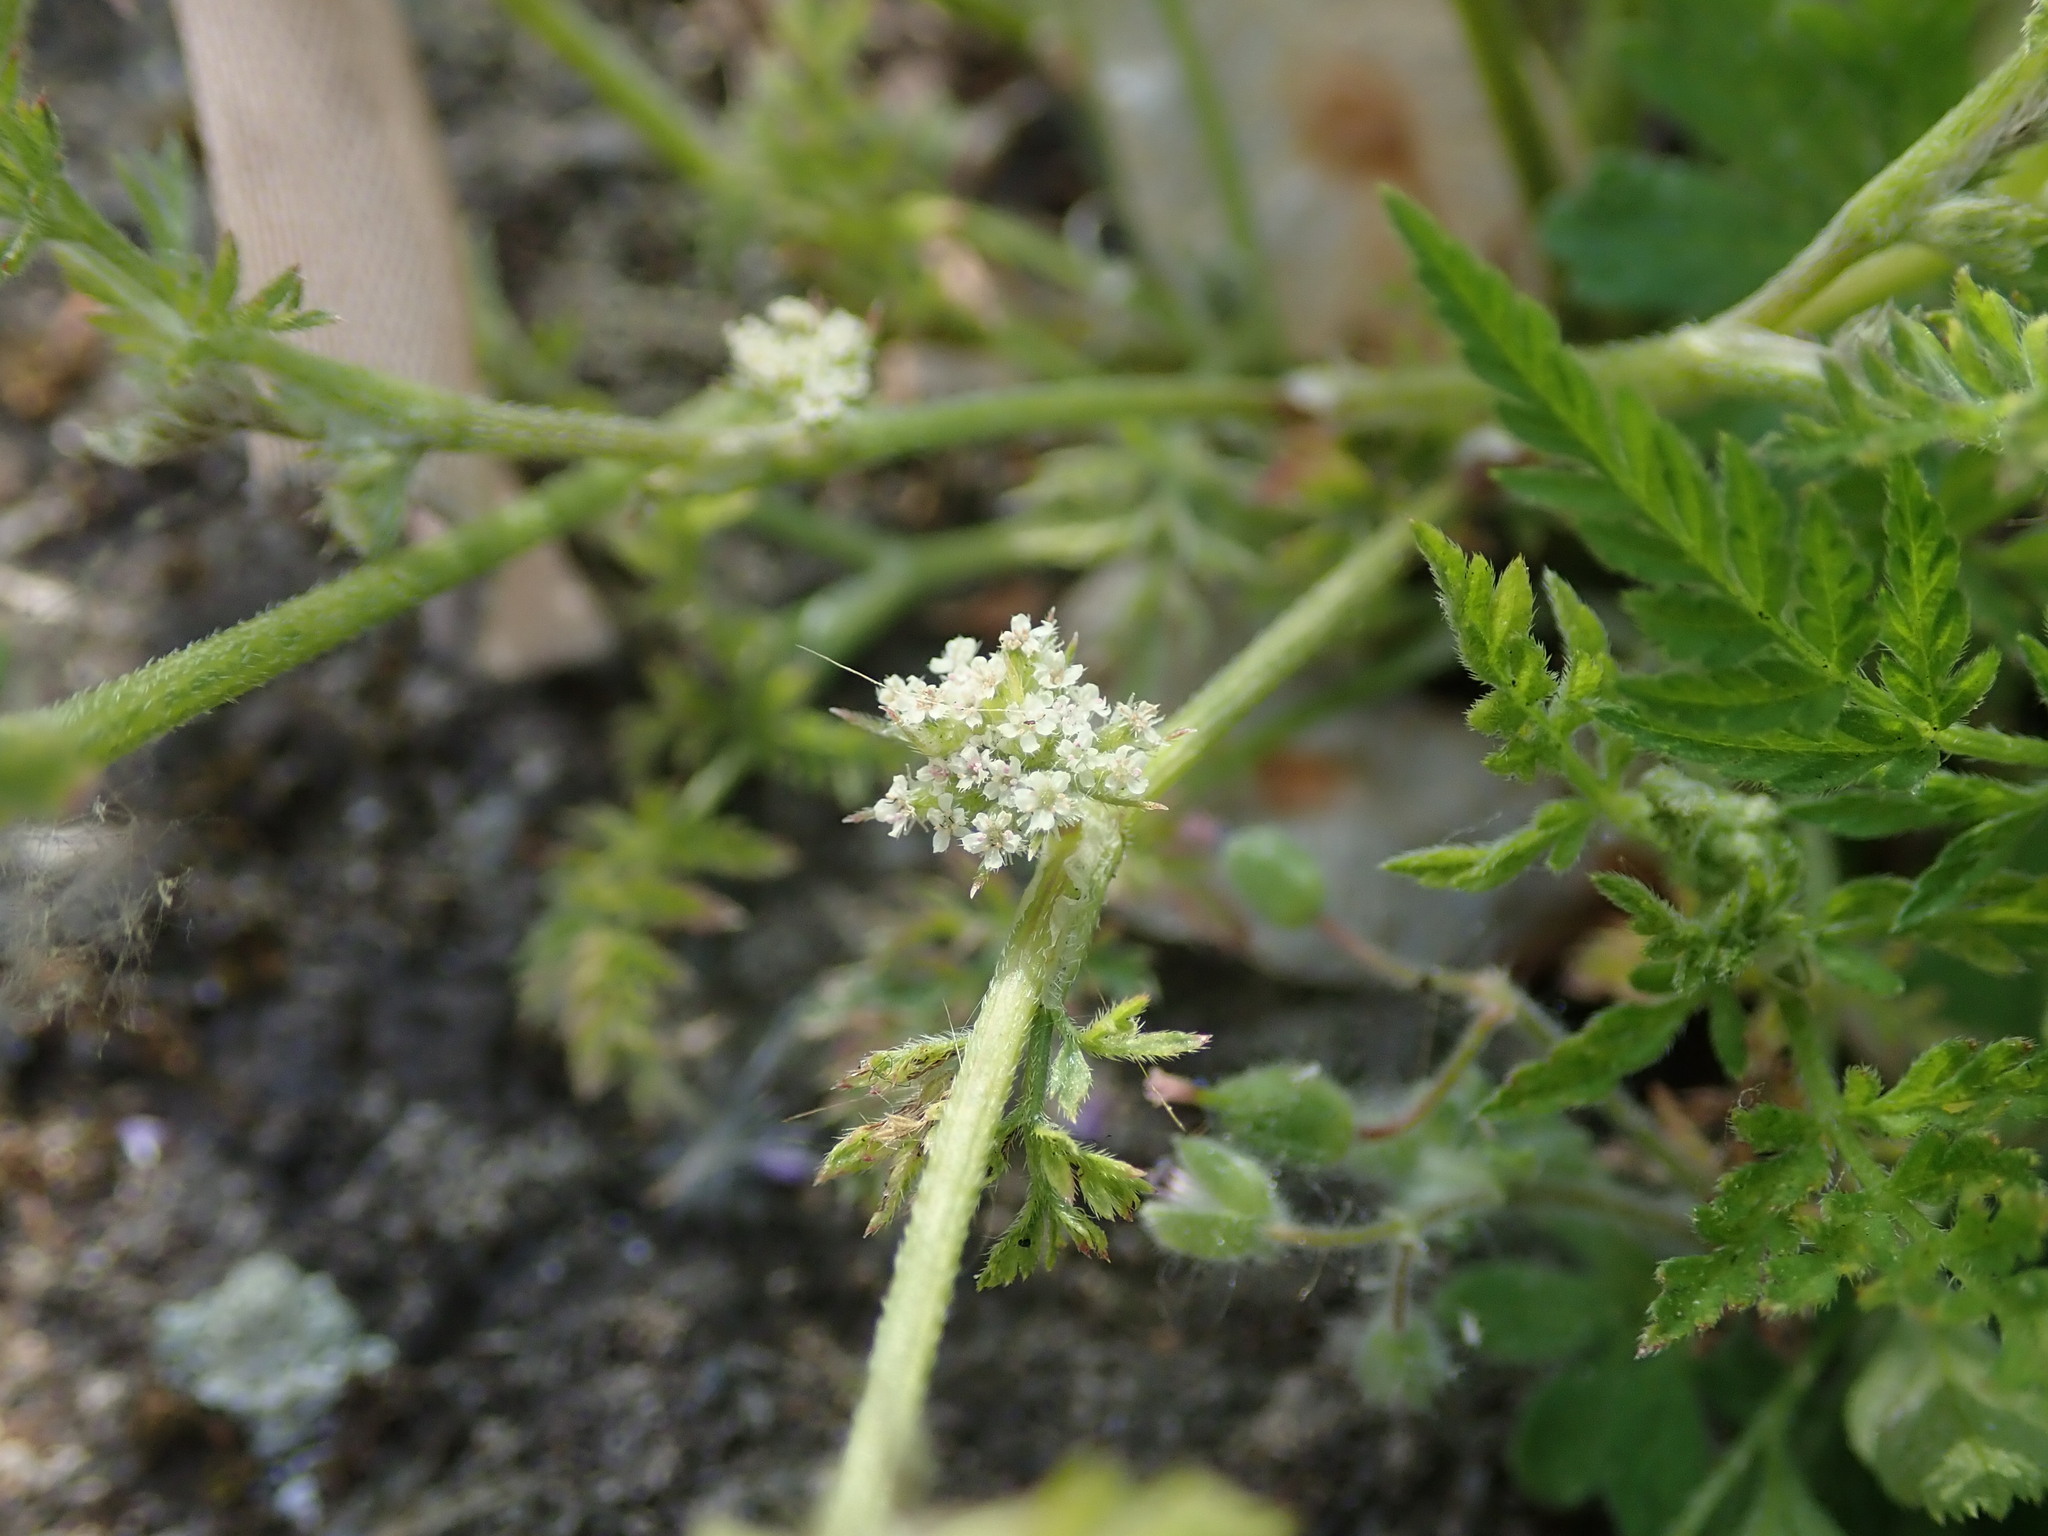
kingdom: Plantae
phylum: Tracheophyta
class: Magnoliopsida
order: Apiales
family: Apiaceae
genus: Torilis
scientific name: Torilis nodosa
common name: Knotted hedge-parsley
